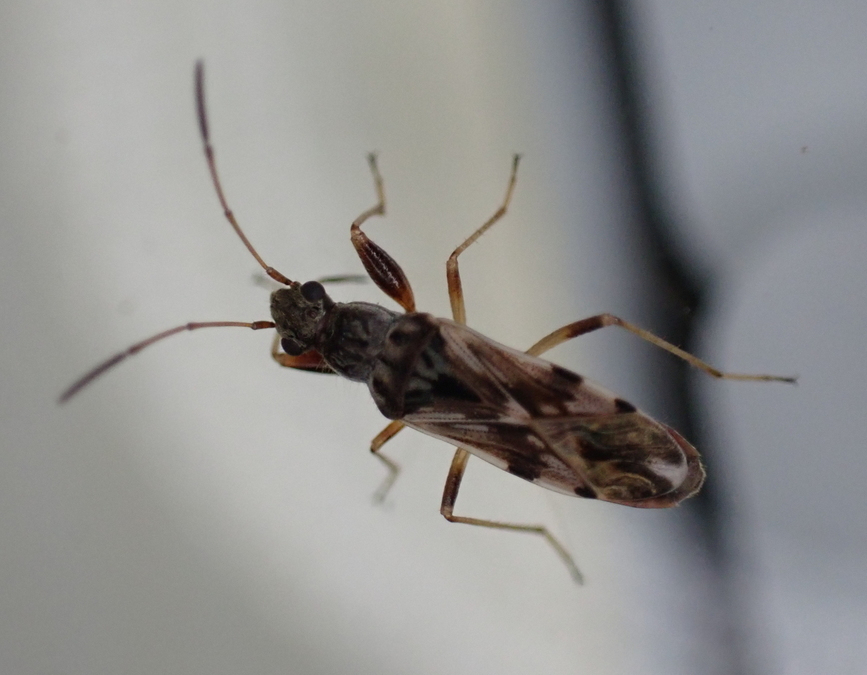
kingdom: Animalia
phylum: Arthropoda
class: Insecta
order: Hemiptera
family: Rhyparochromidae
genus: Neopamera
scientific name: Neopamera bilobata
